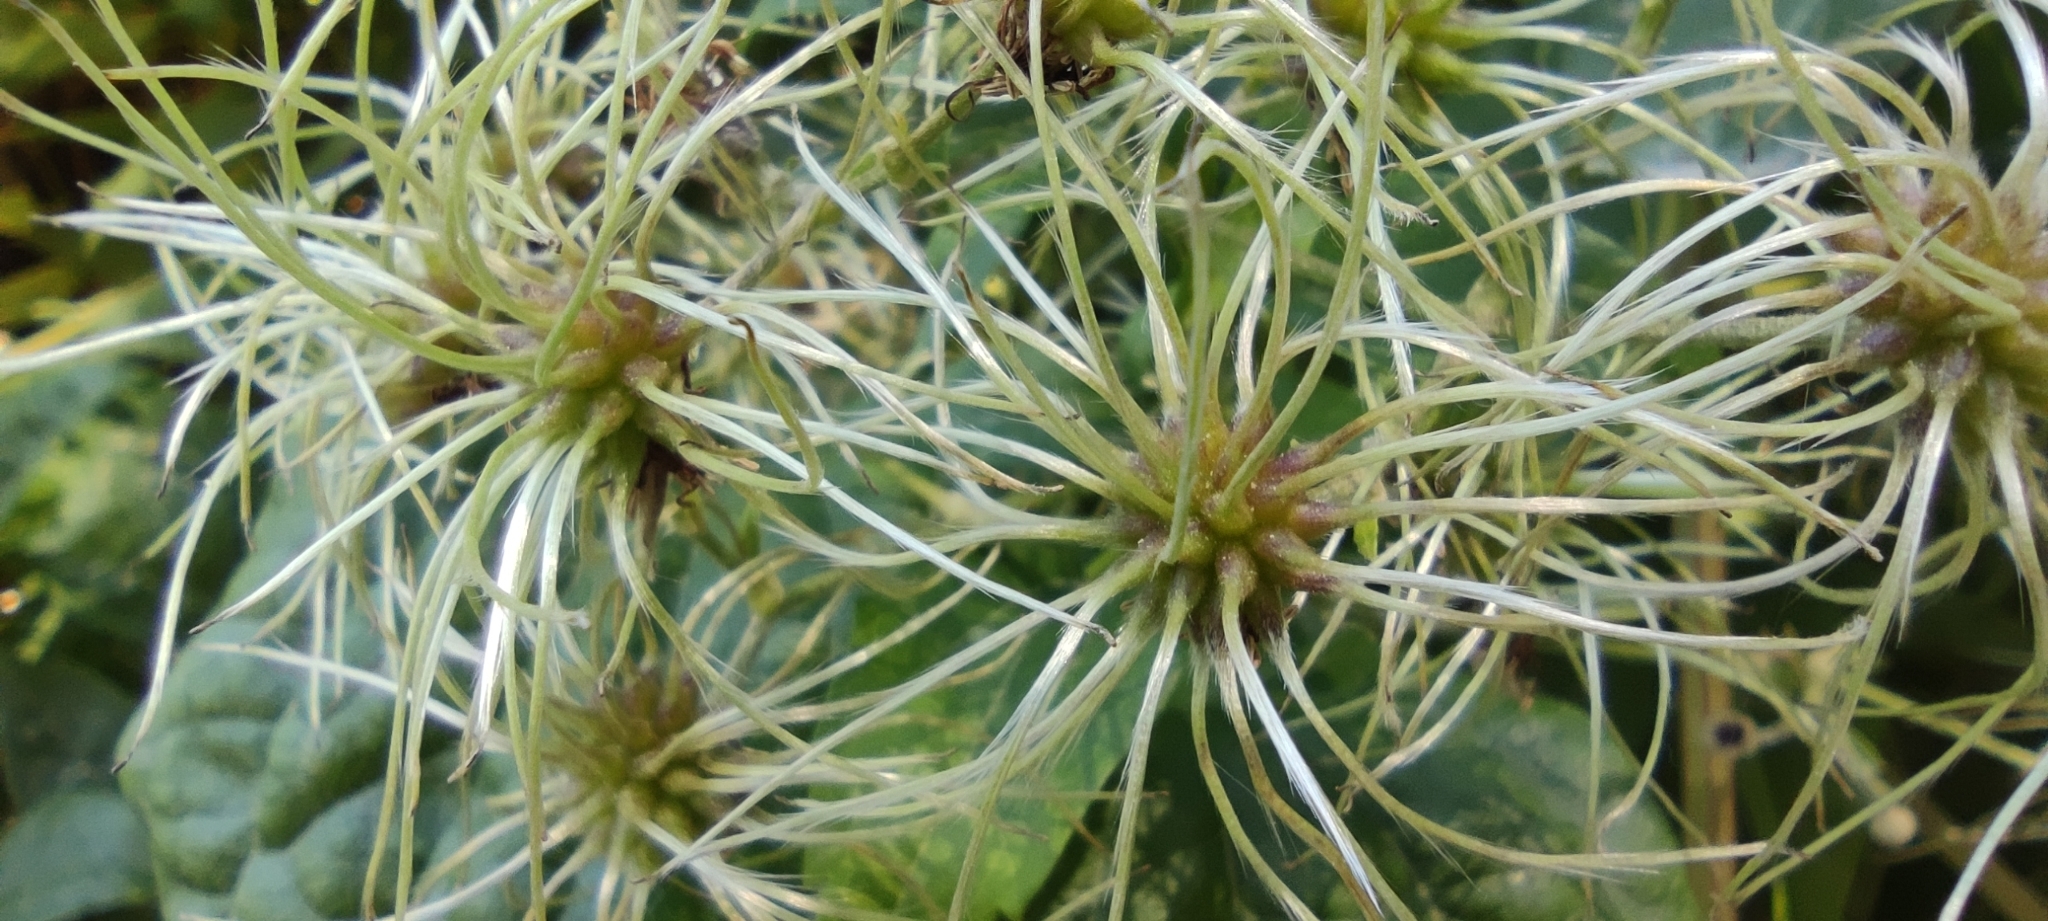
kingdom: Plantae
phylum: Tracheophyta
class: Magnoliopsida
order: Ranunculales
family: Ranunculaceae
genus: Clematis
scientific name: Clematis vitalba
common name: Evergreen clematis
